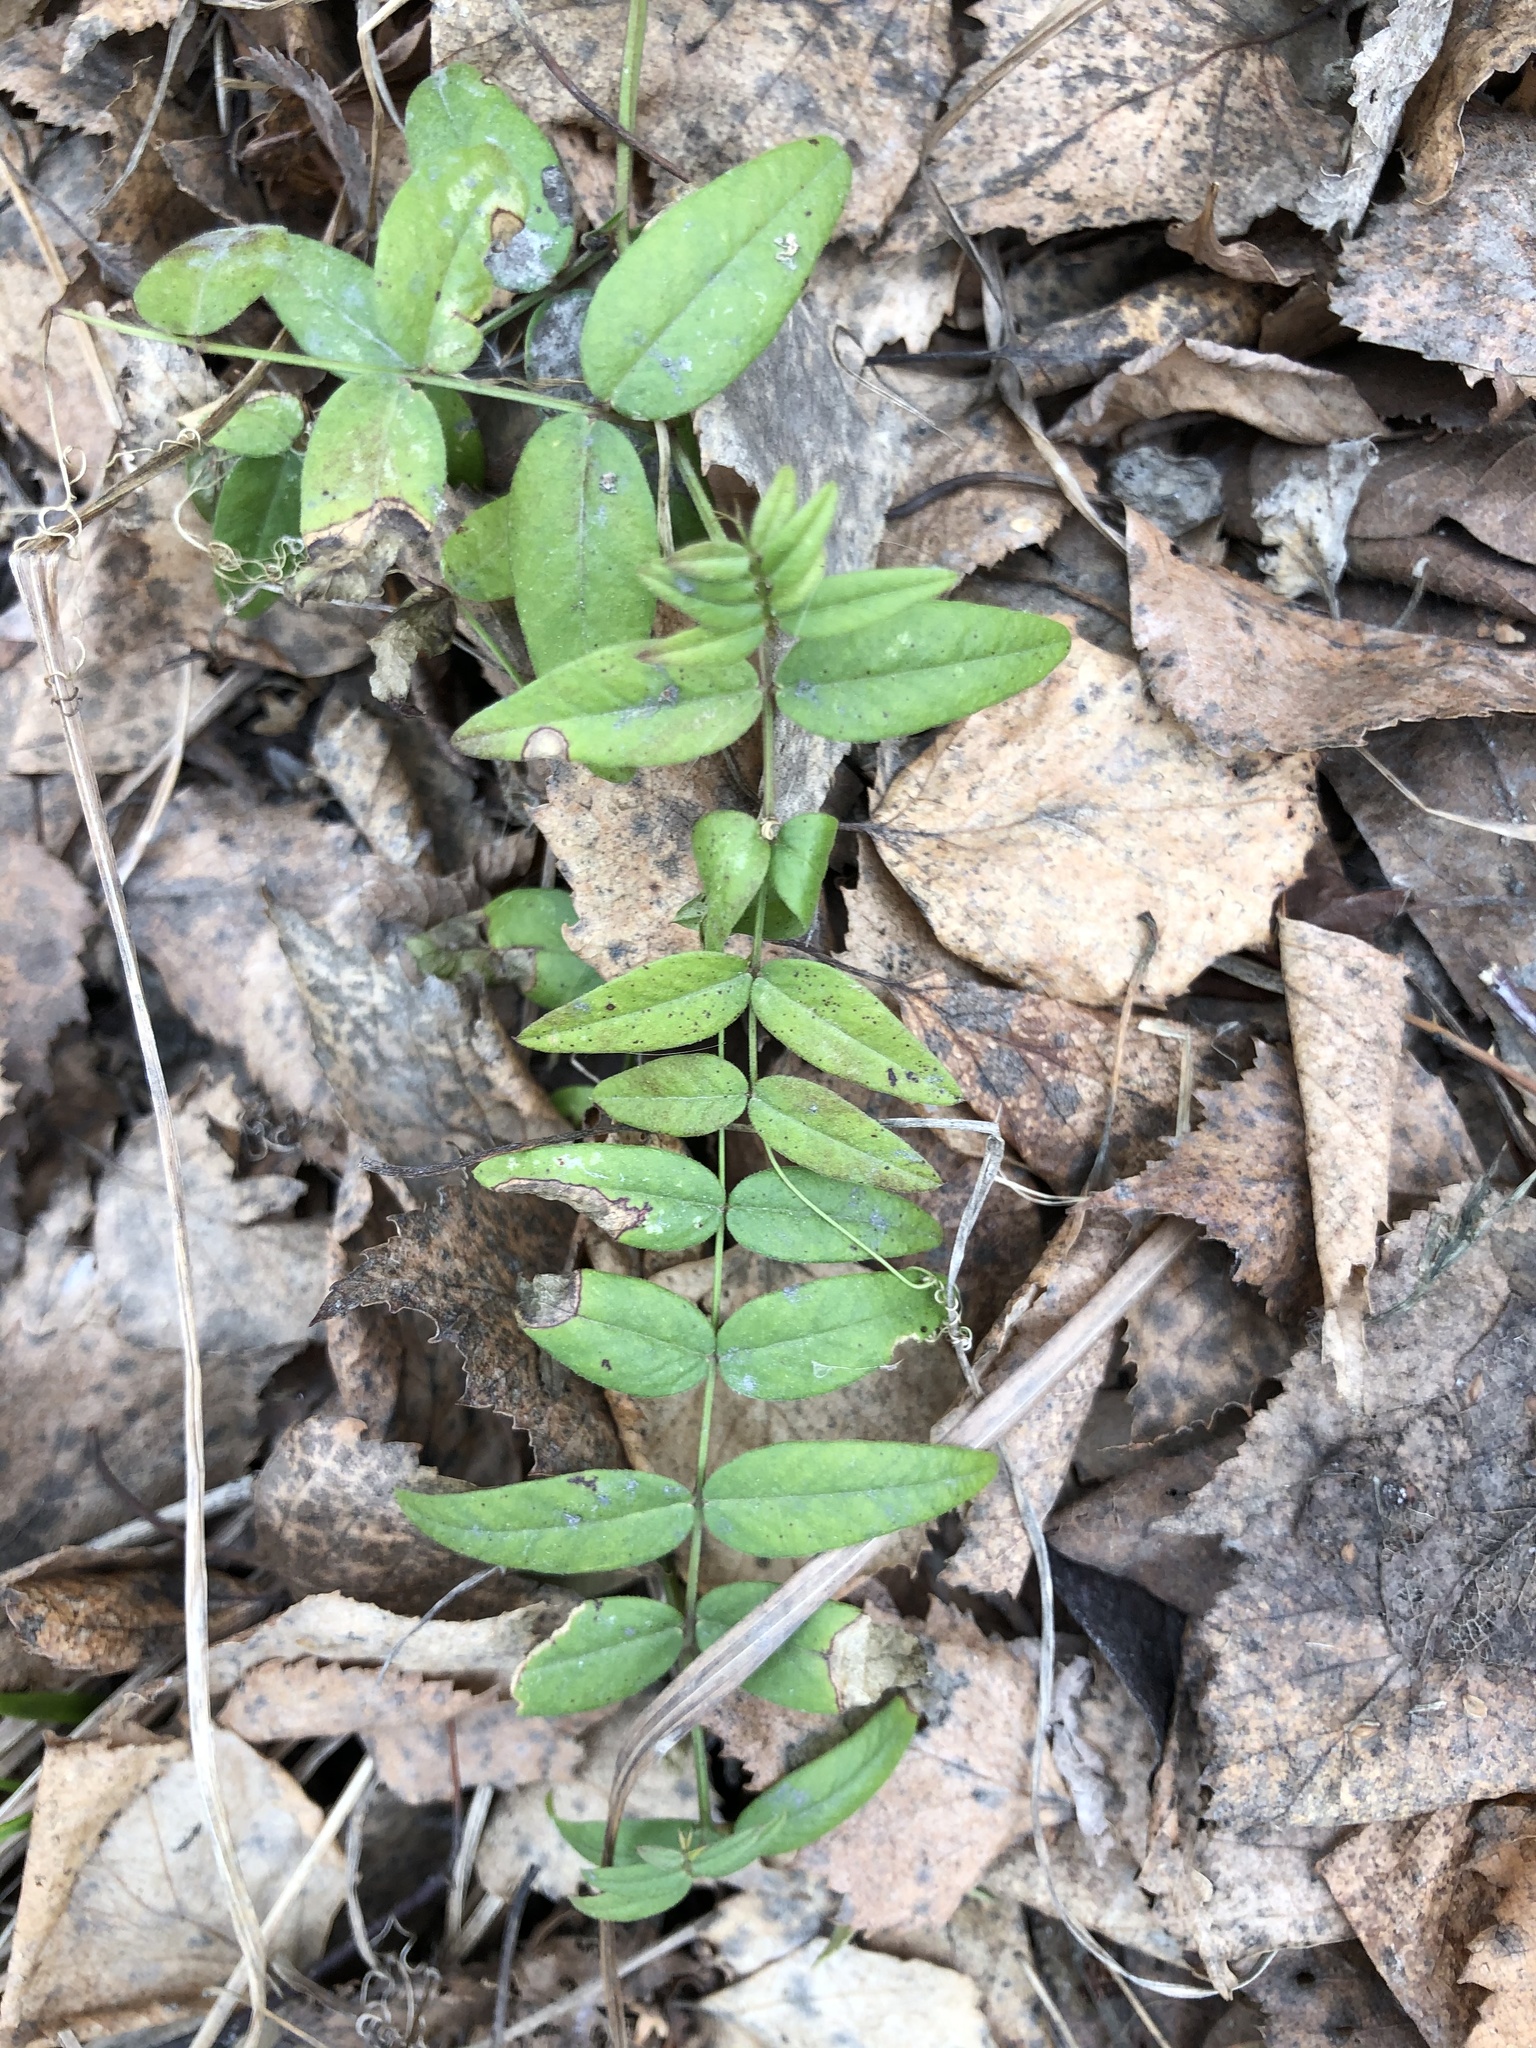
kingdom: Plantae
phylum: Tracheophyta
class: Magnoliopsida
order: Fabales
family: Fabaceae
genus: Vicia
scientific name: Vicia sepium
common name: Bush vetch
